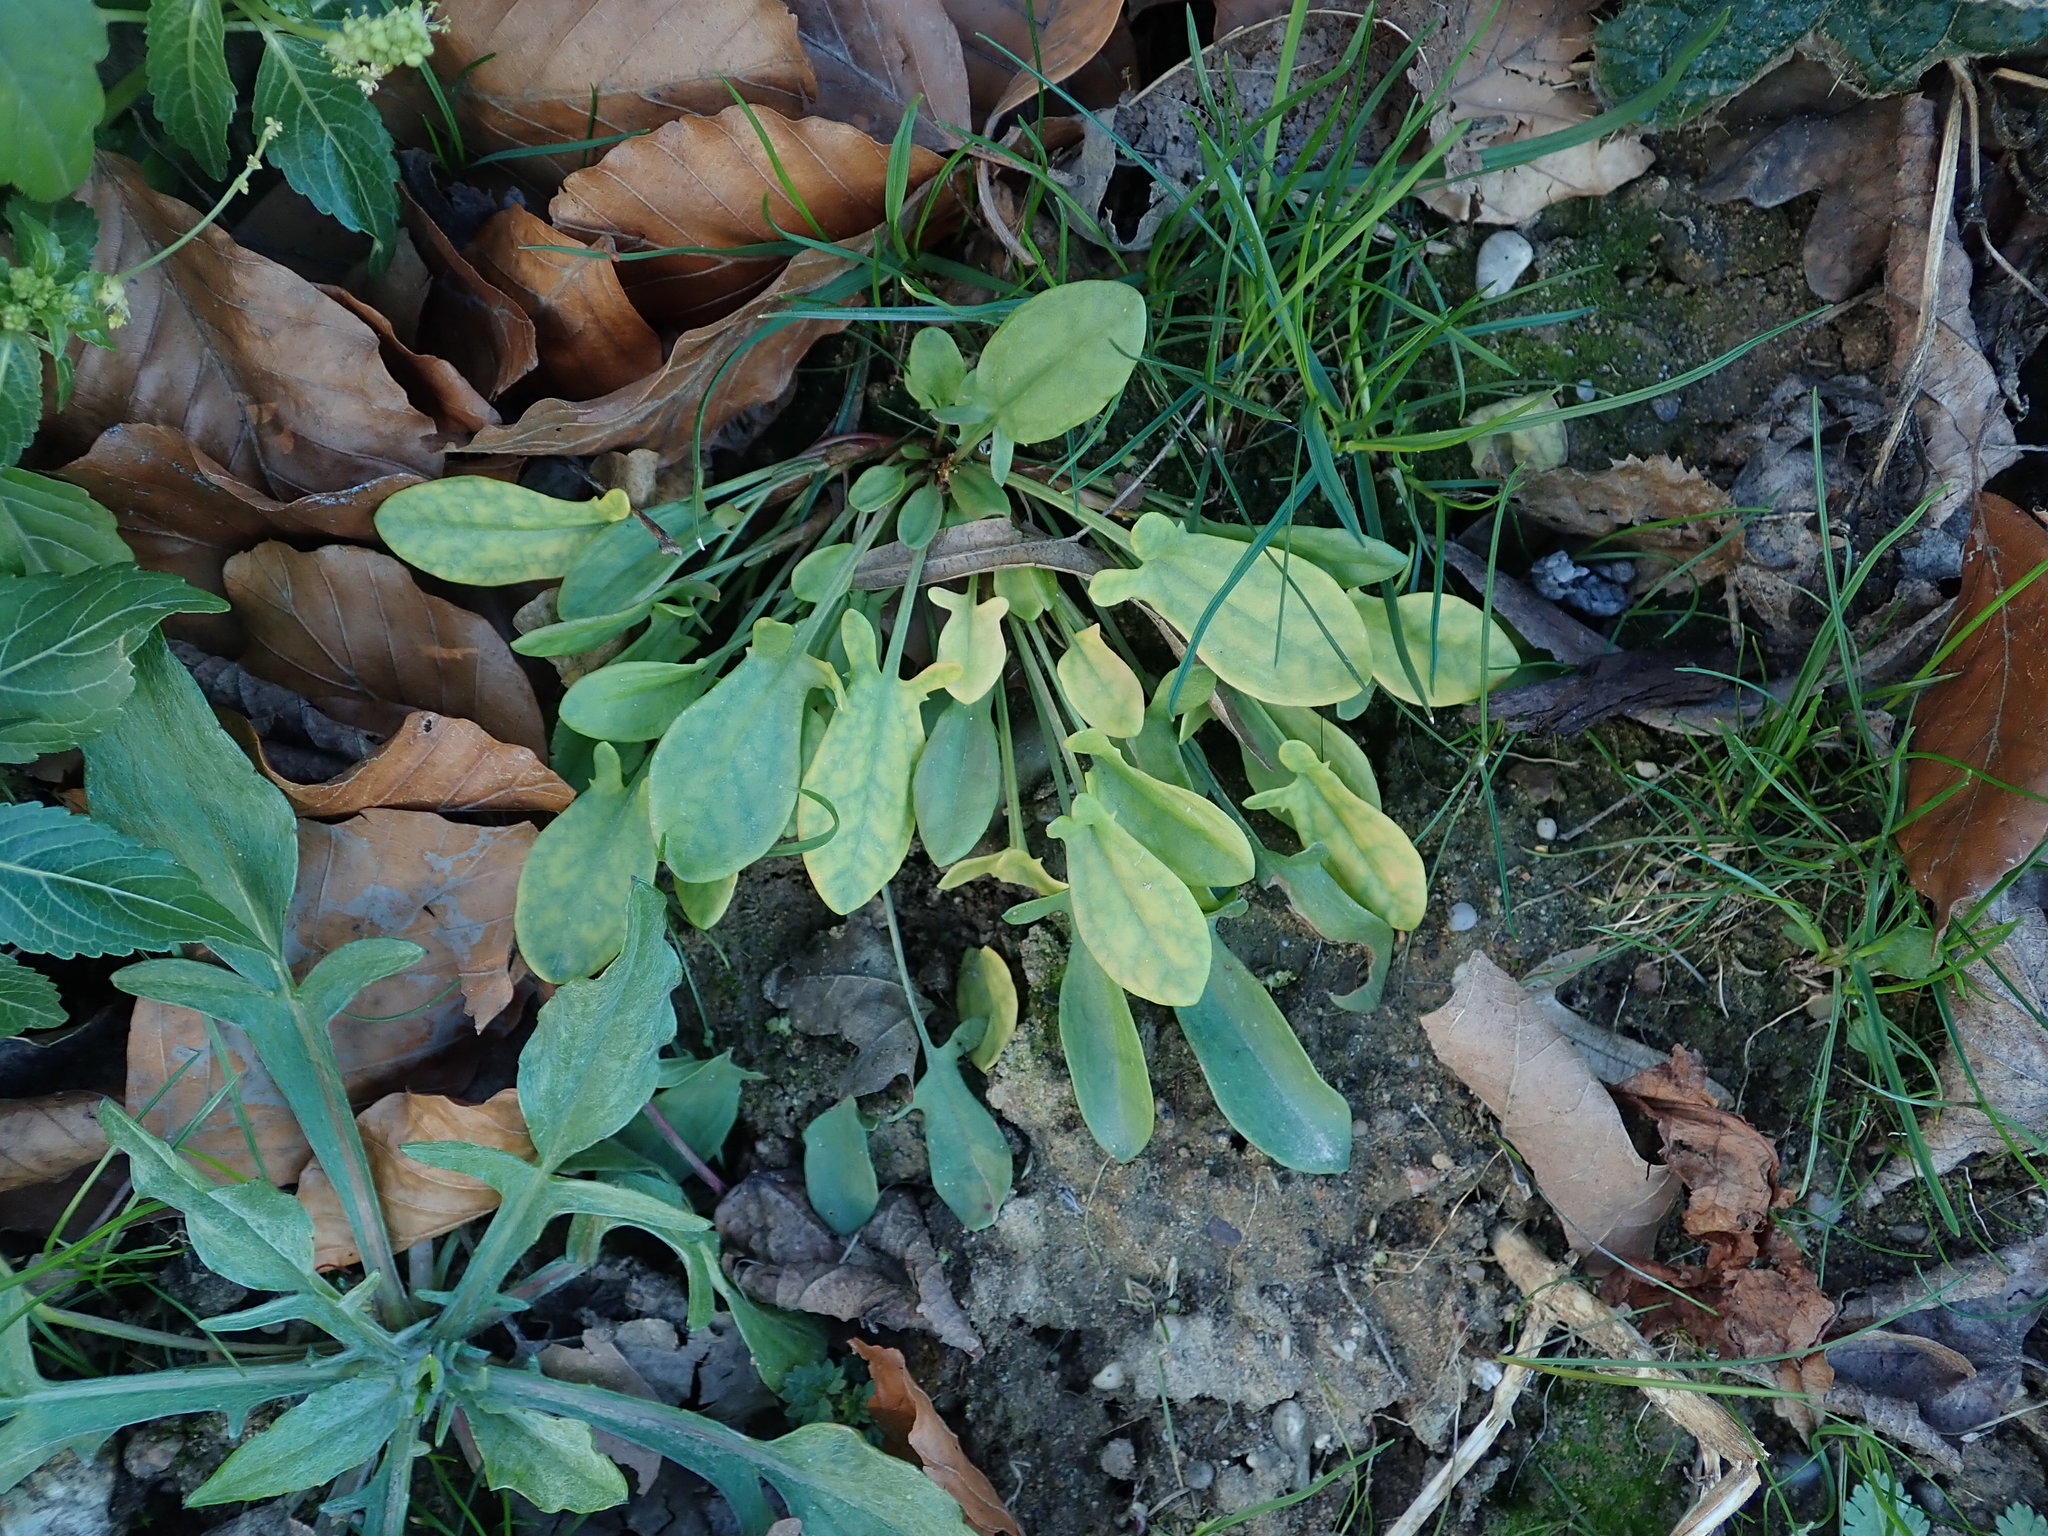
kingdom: Plantae
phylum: Tracheophyta
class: Magnoliopsida
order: Caryophyllales
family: Polygonaceae
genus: Rumex
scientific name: Rumex acetosella
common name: Common sheep sorrel
